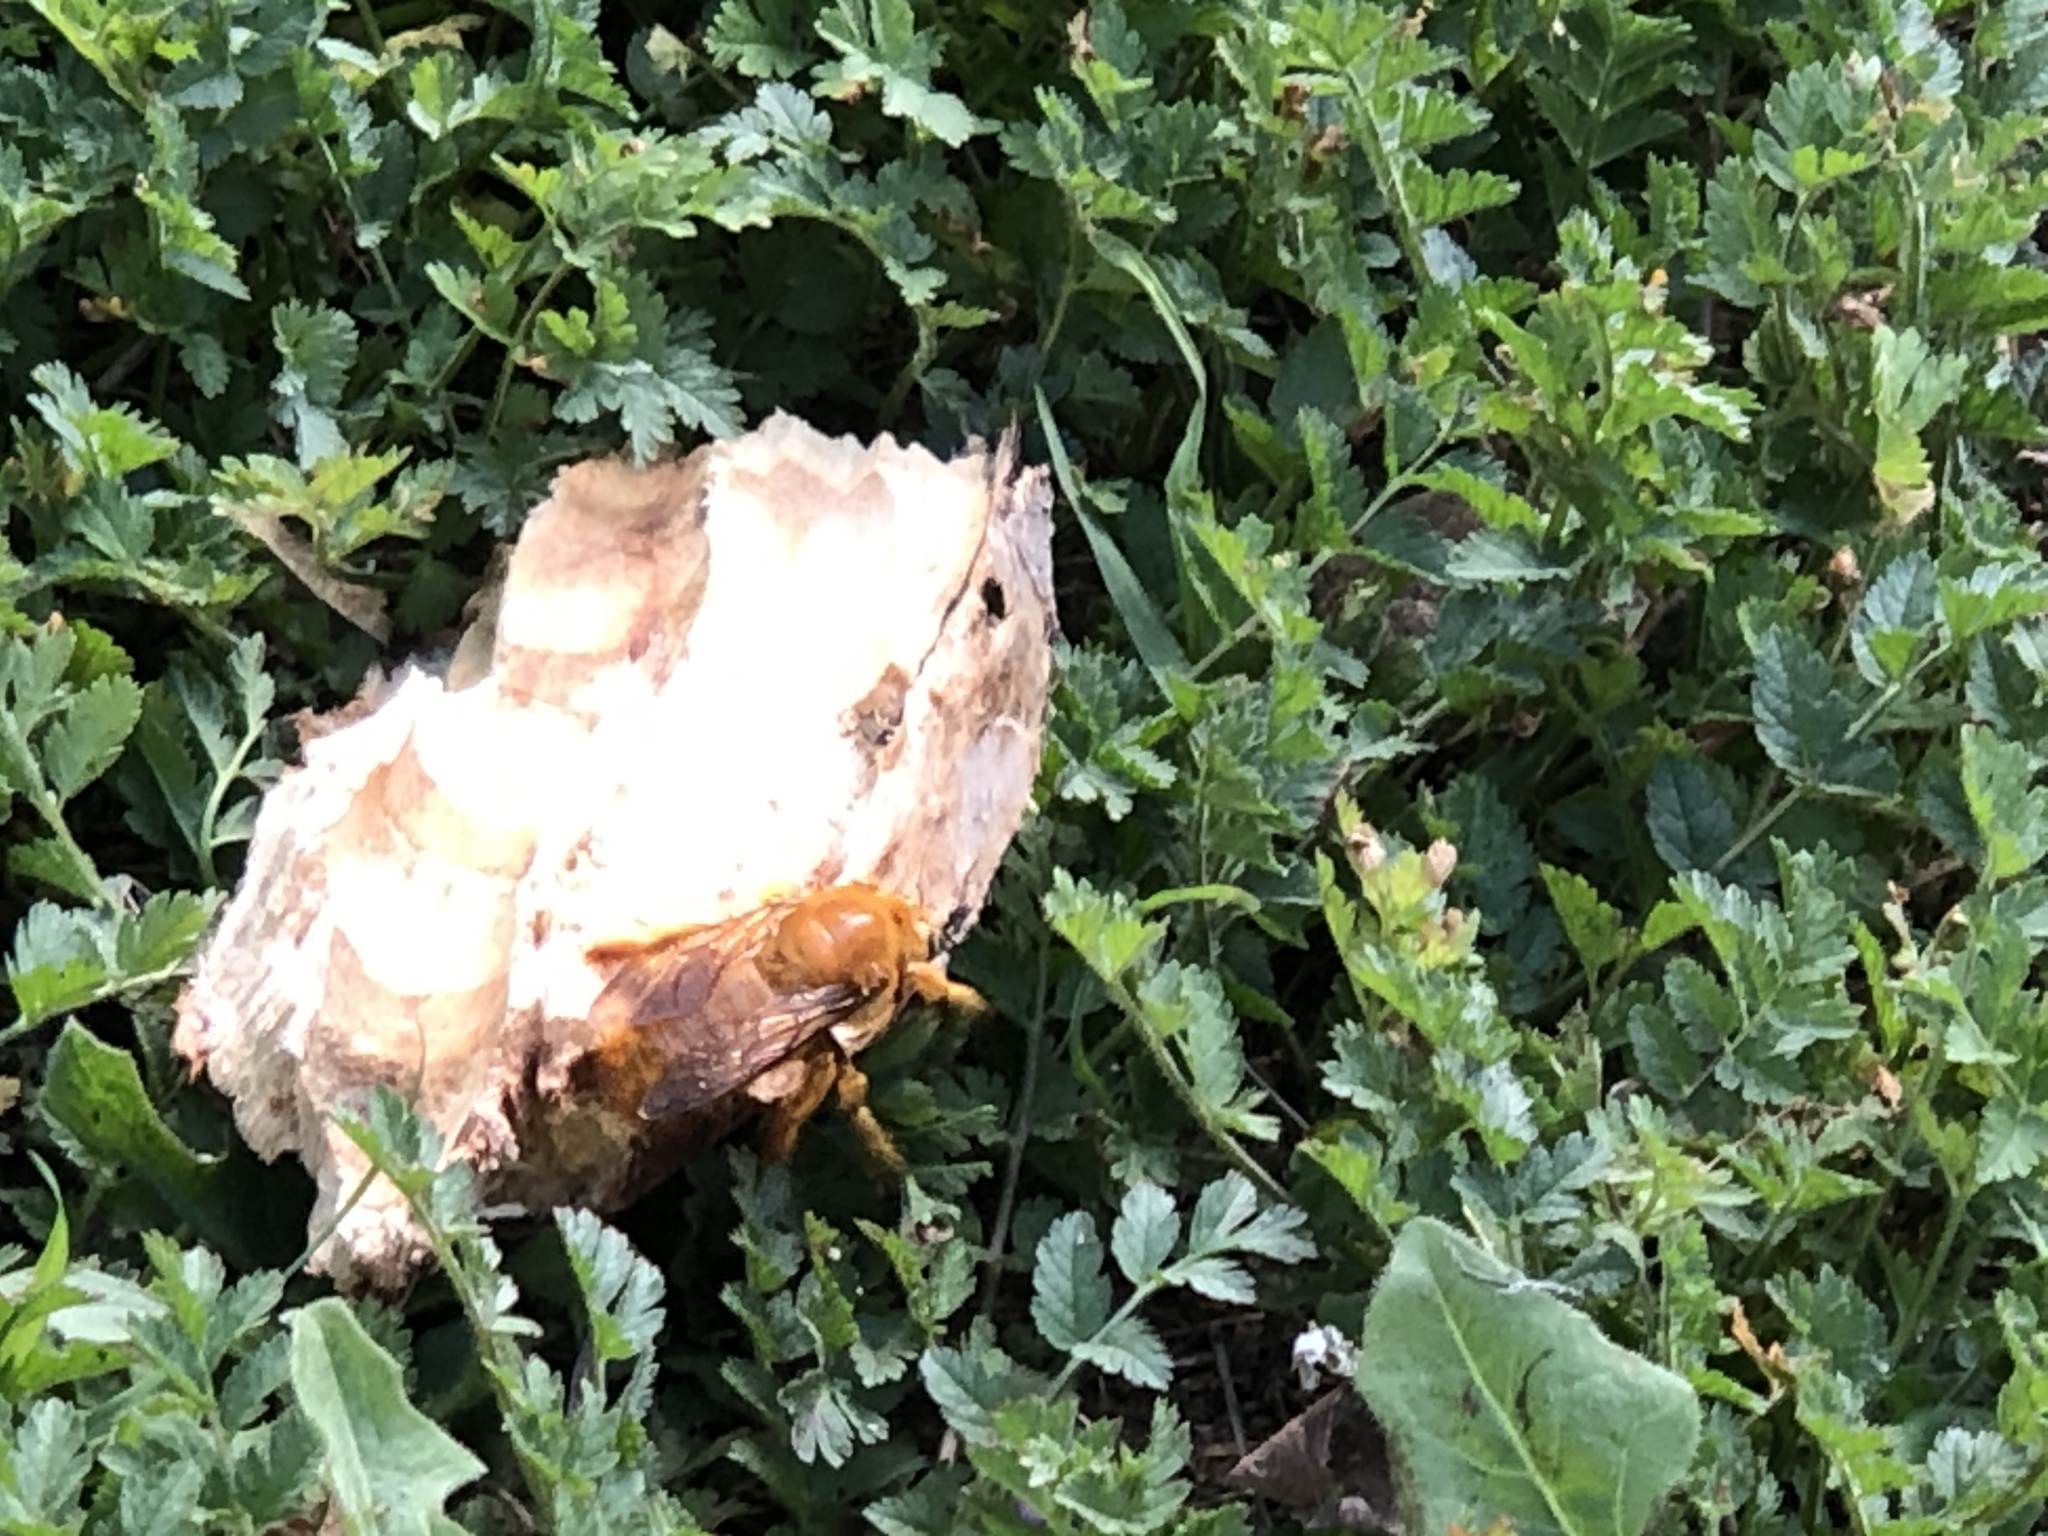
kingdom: Animalia
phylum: Arthropoda
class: Insecta
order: Hymenoptera
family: Apidae
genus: Xylocopa
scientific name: Xylocopa sonorina
